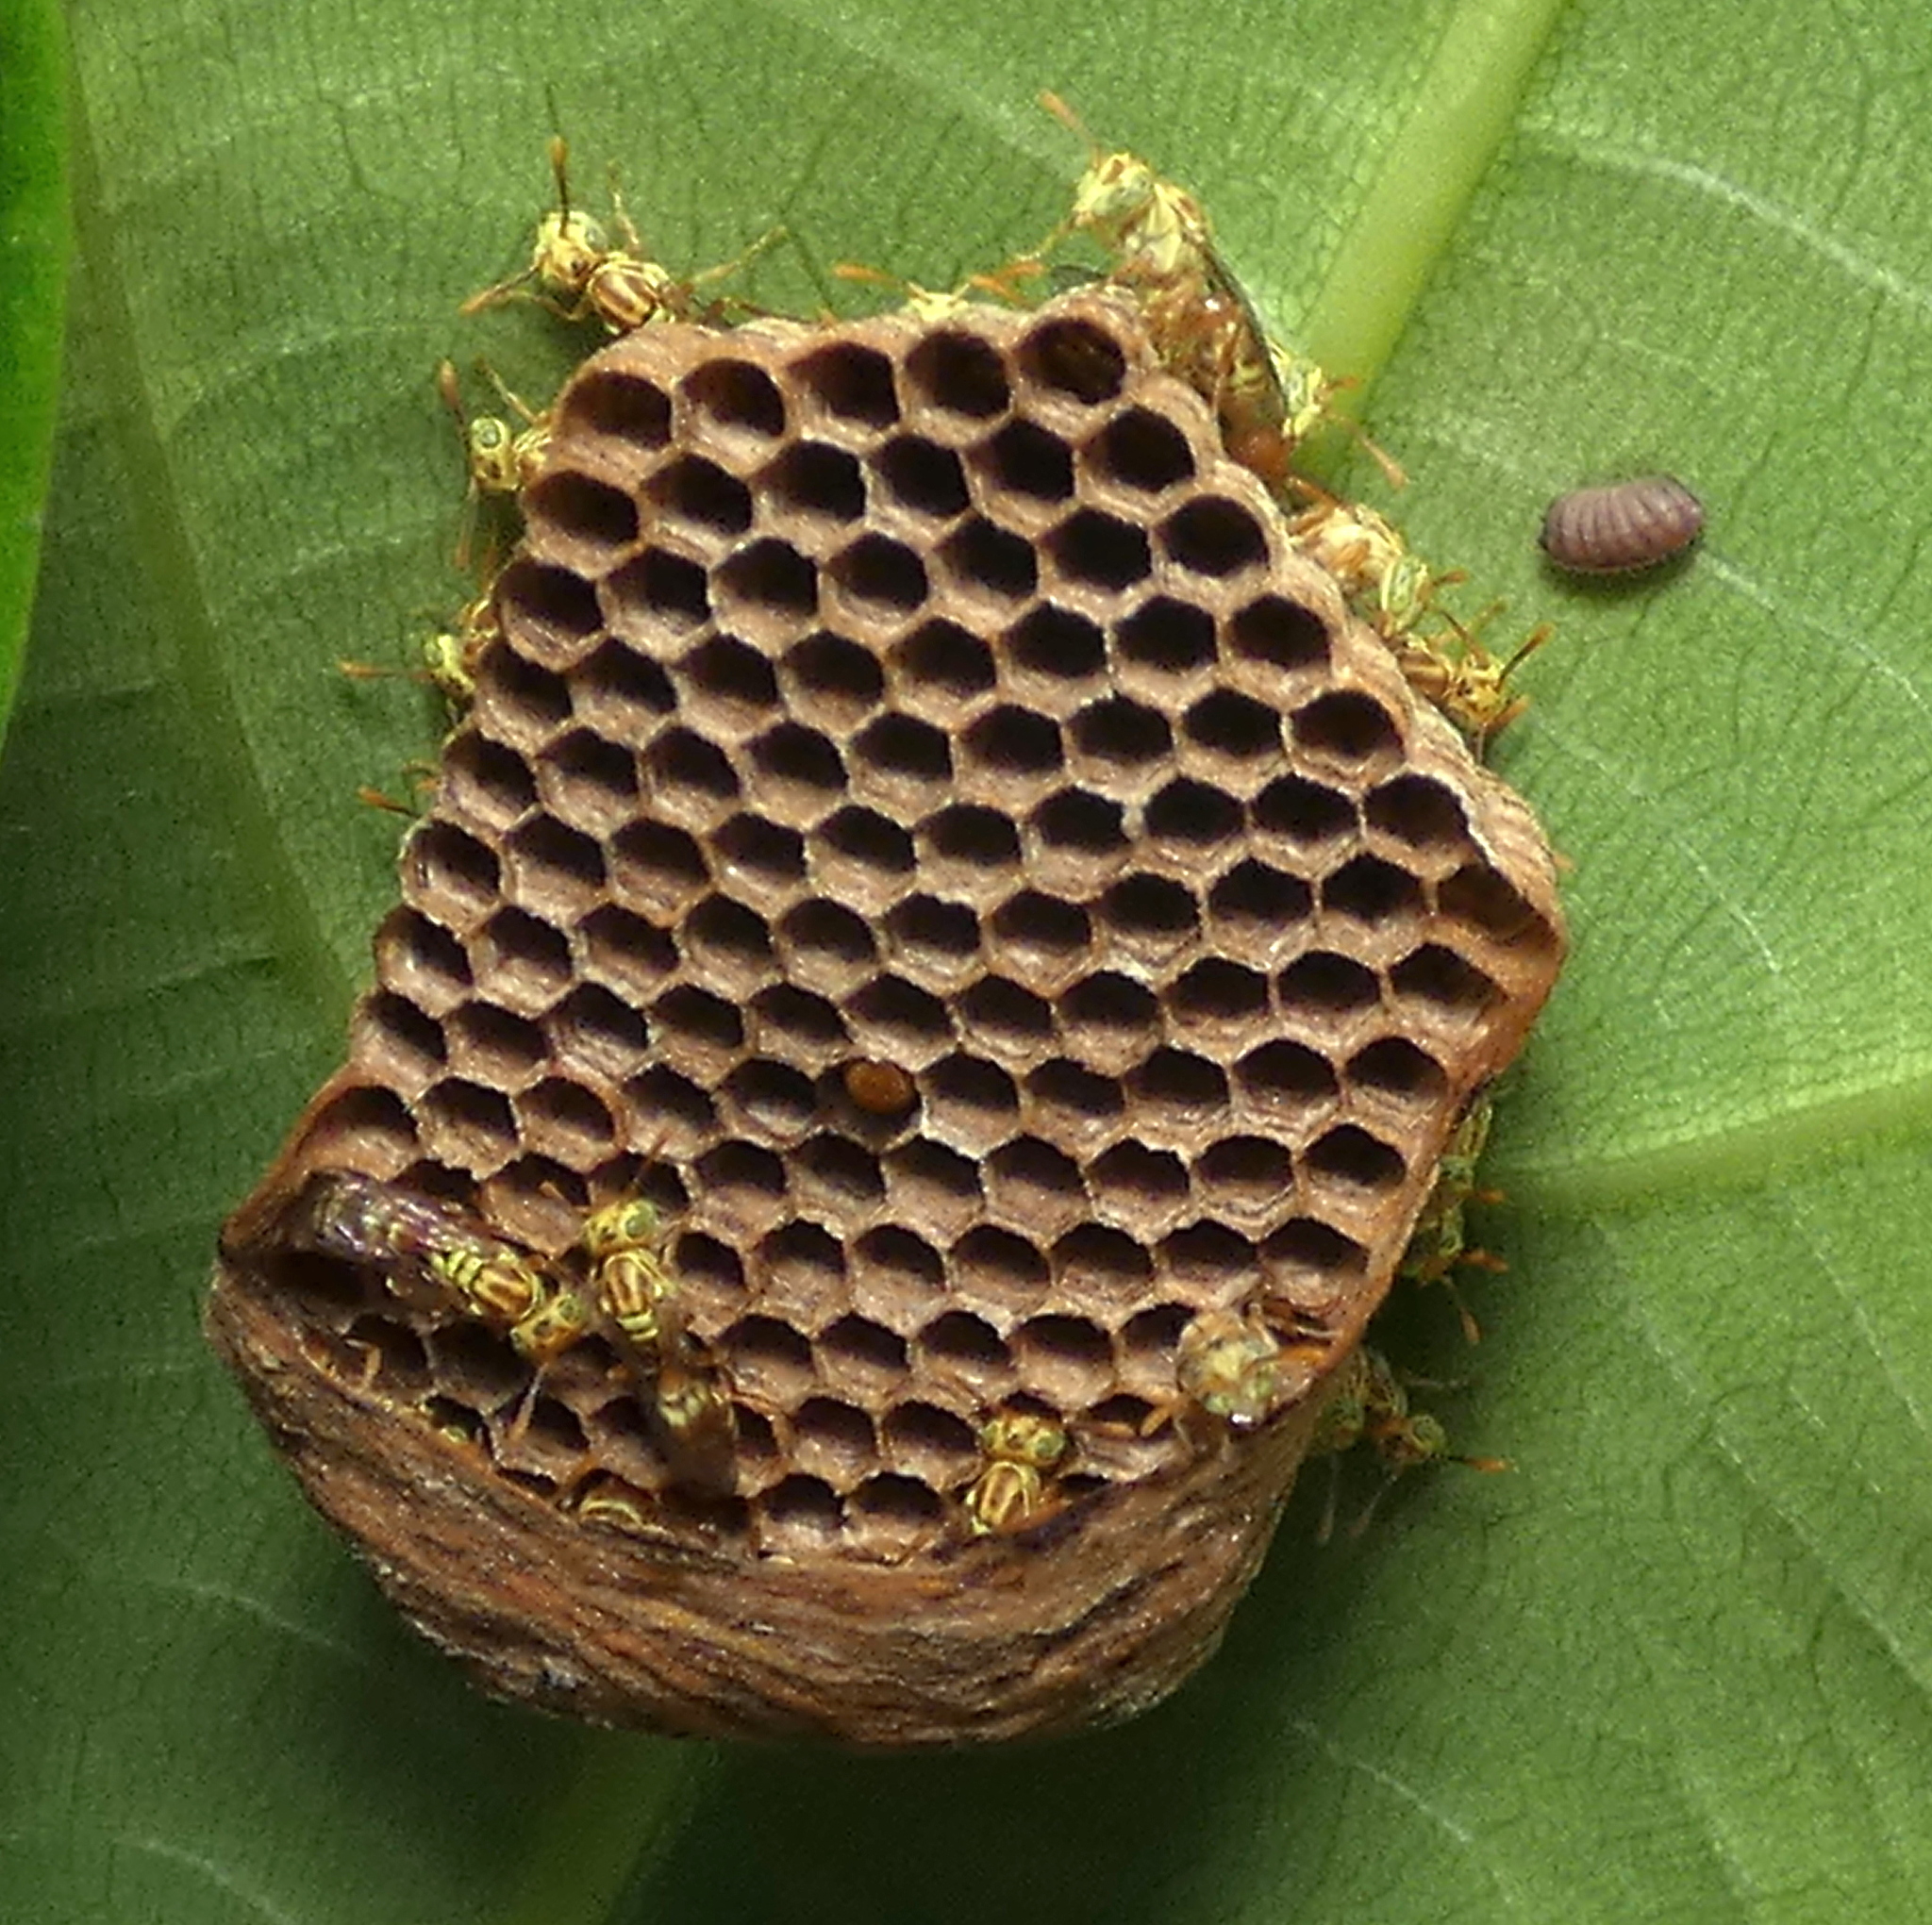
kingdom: Animalia
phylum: Arthropoda
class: Insecta
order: Hymenoptera
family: Vespidae
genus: Protopolybia
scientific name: Protopolybia potiguara
